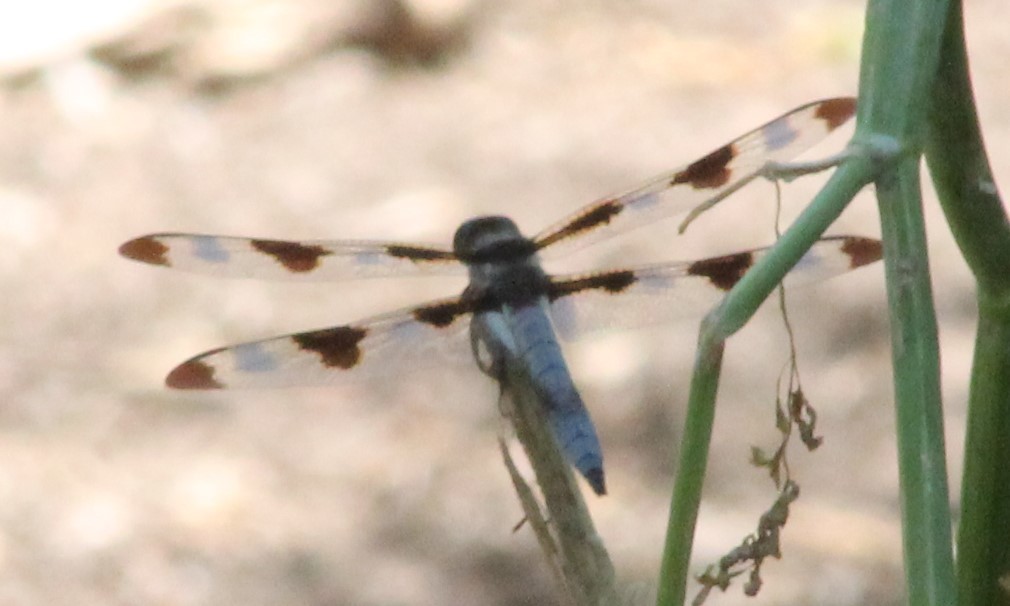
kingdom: Animalia
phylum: Arthropoda
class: Insecta
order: Odonata
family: Libellulidae
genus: Libellula
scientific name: Libellula pulchella
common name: Twelve-spotted skimmer
